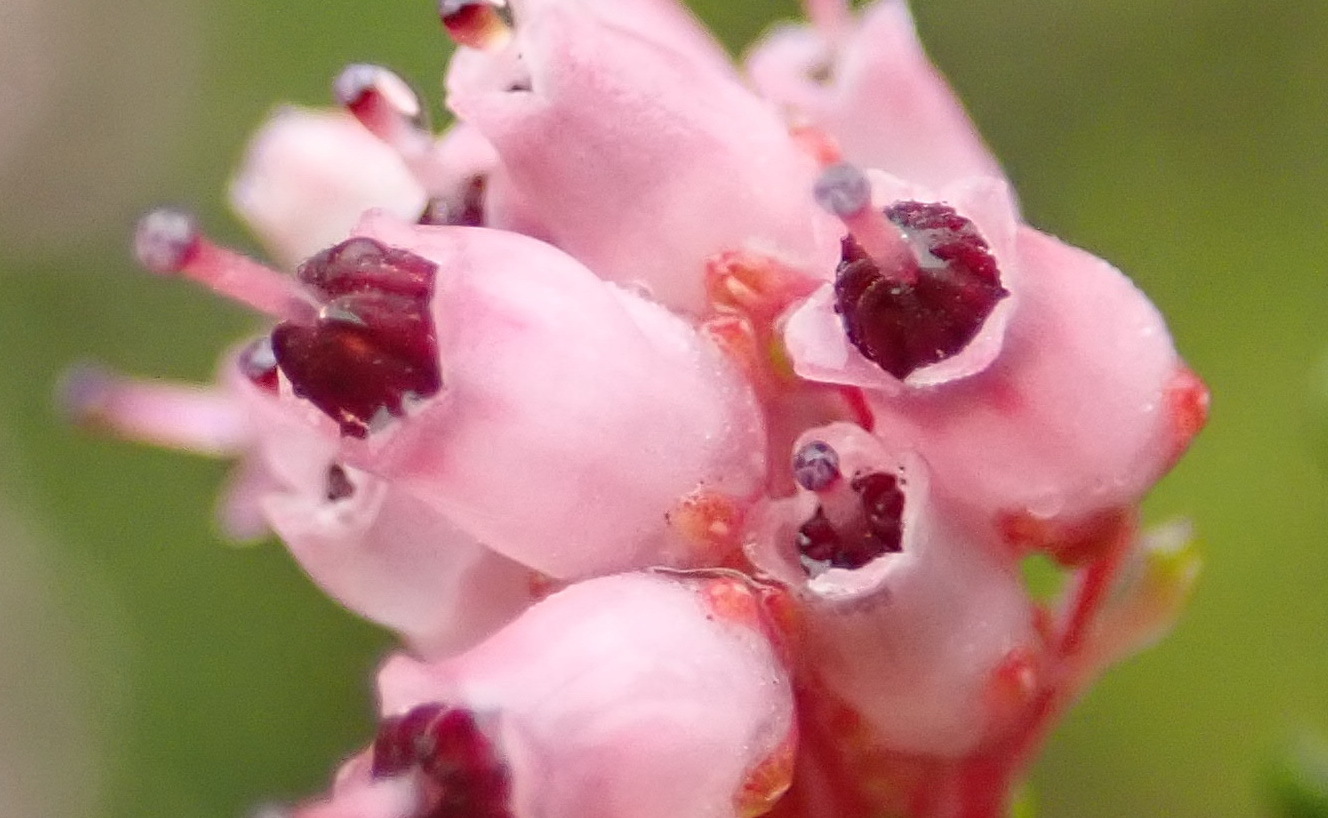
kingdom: Plantae
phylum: Tracheophyta
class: Magnoliopsida
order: Ericales
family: Ericaceae
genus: Erica
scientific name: Erica petraea
